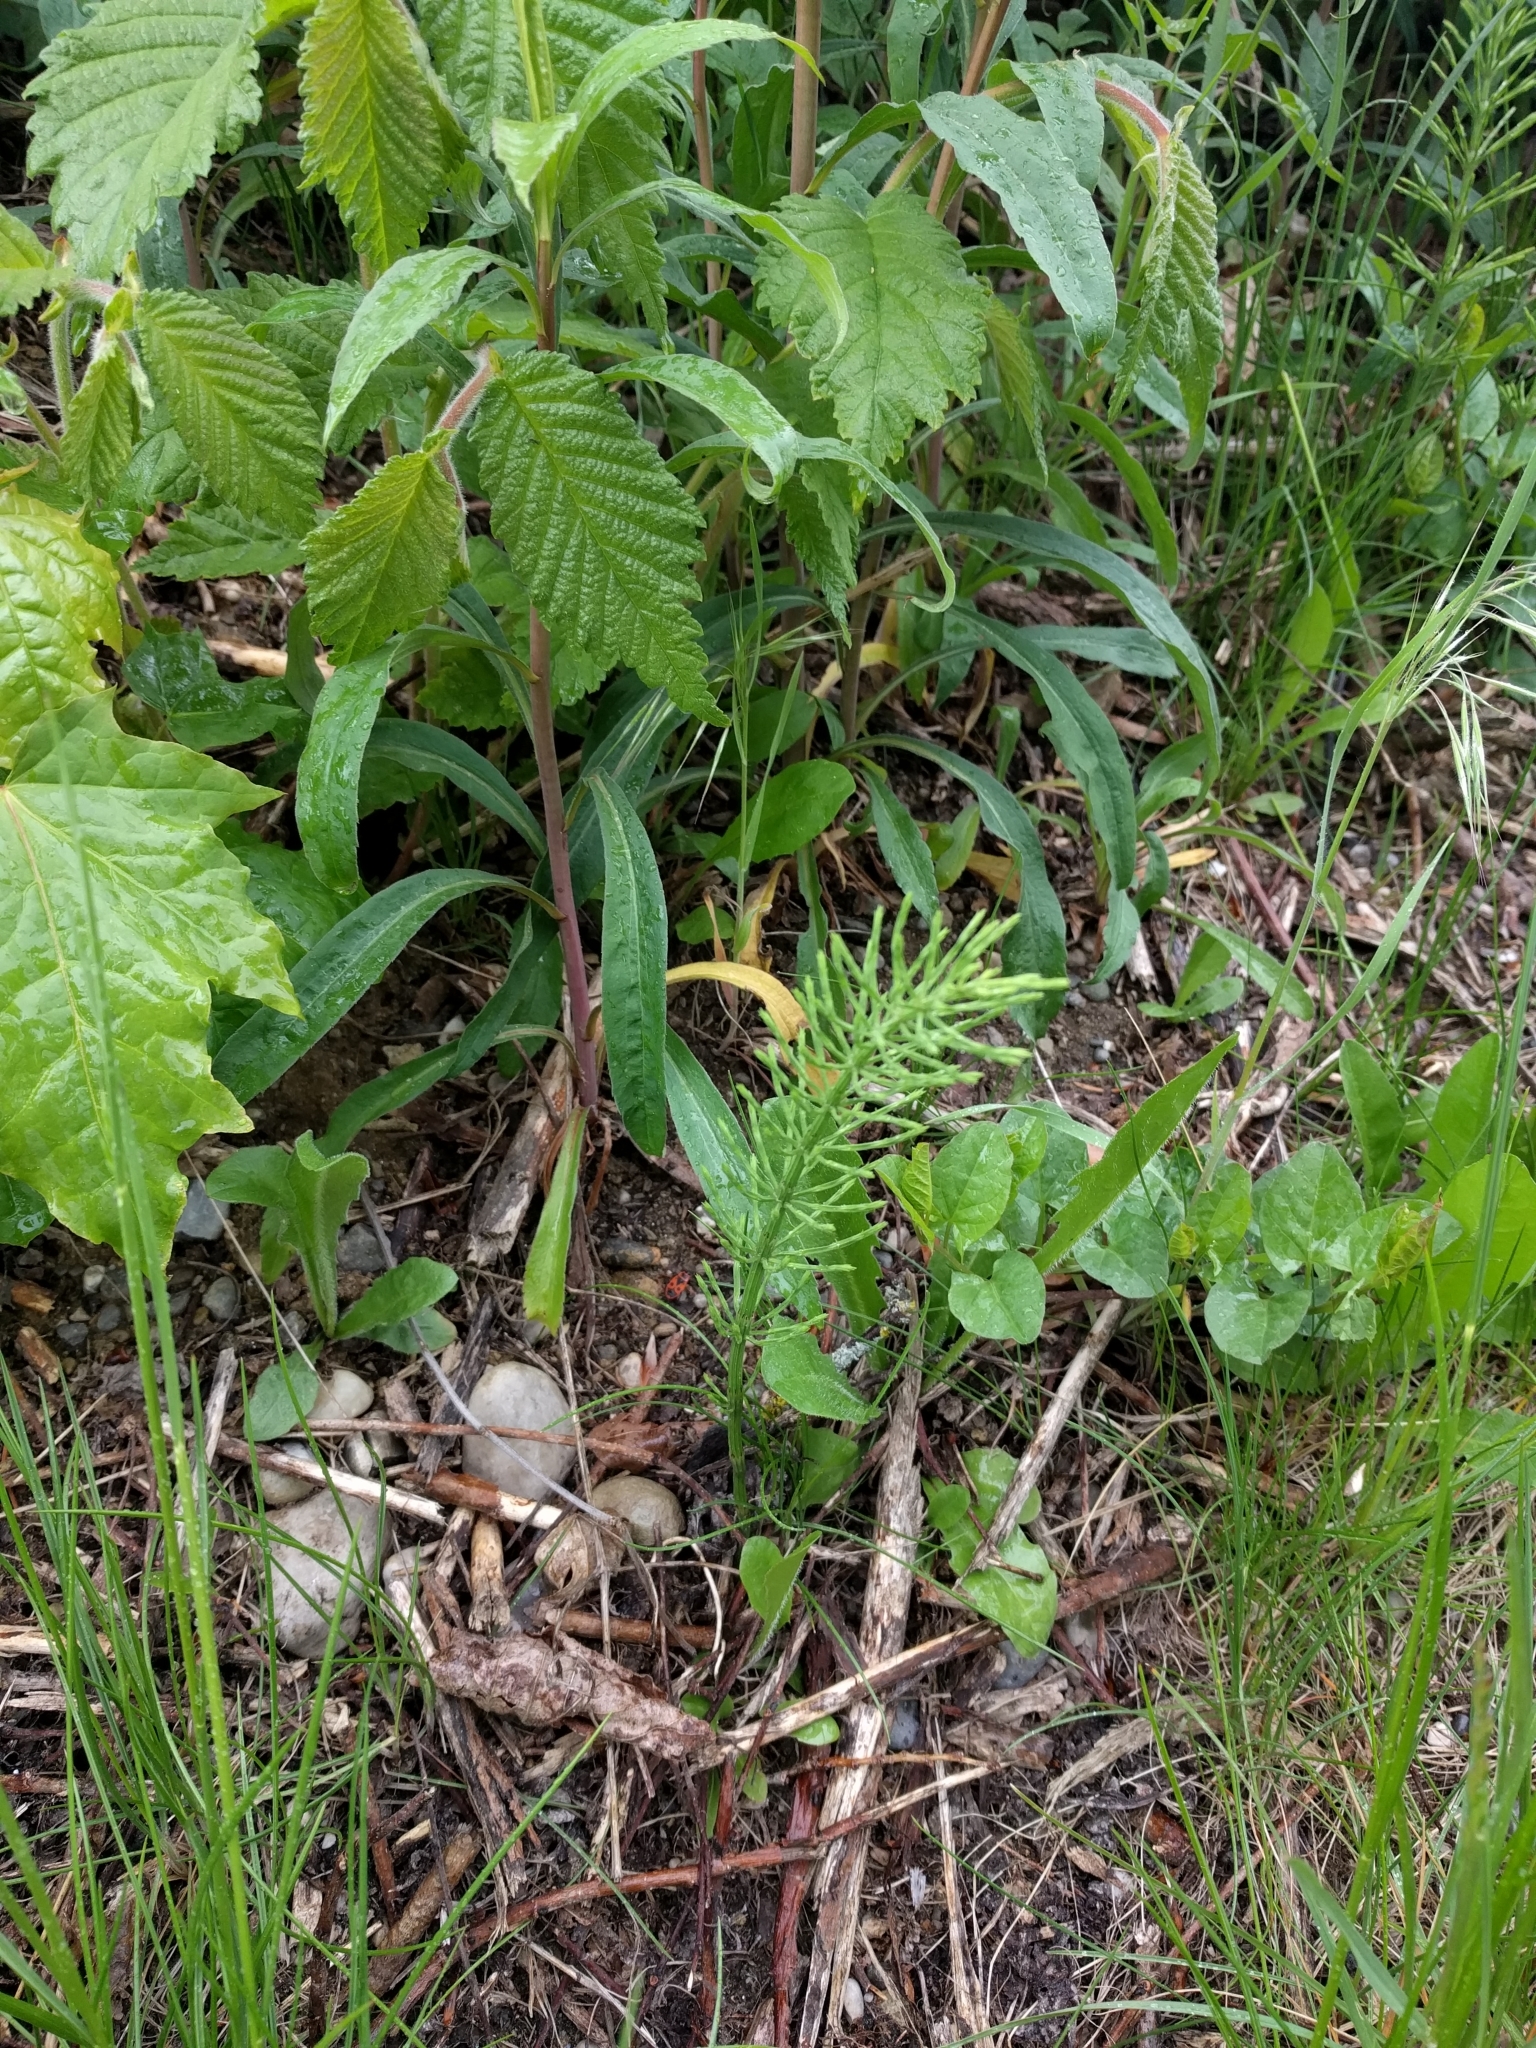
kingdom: Plantae
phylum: Tracheophyta
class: Polypodiopsida
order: Equisetales
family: Equisetaceae
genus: Equisetum
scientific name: Equisetum arvense
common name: Field horsetail
